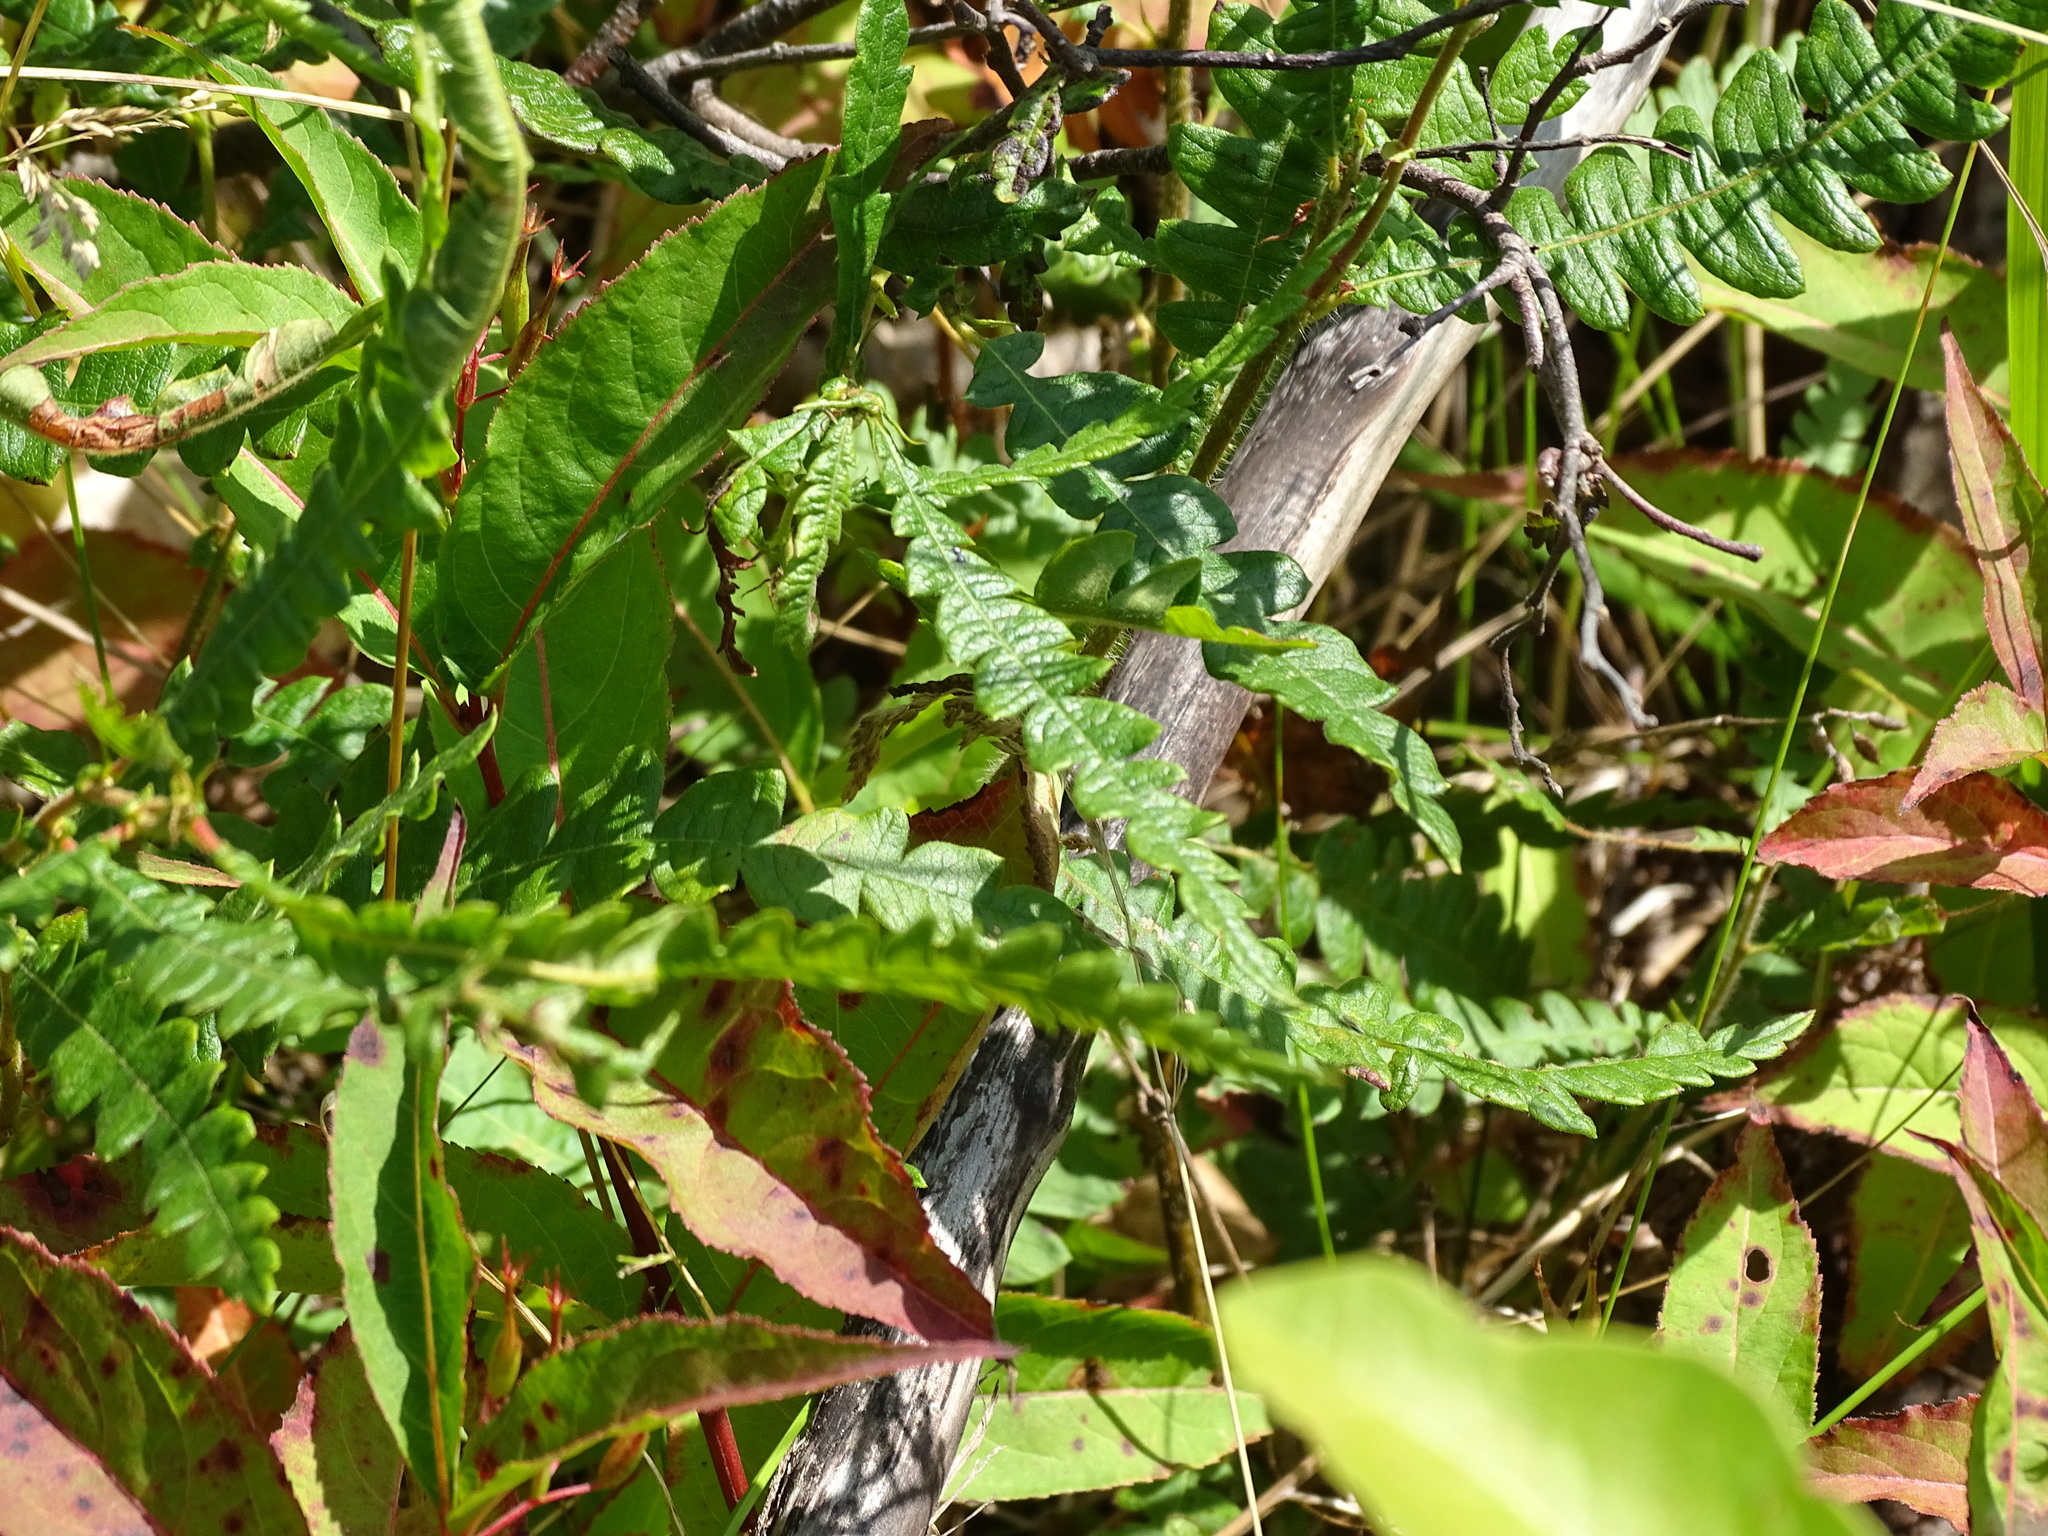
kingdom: Plantae
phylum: Tracheophyta
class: Magnoliopsida
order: Fagales
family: Myricaceae
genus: Comptonia
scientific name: Comptonia peregrina
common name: Sweet-fern
